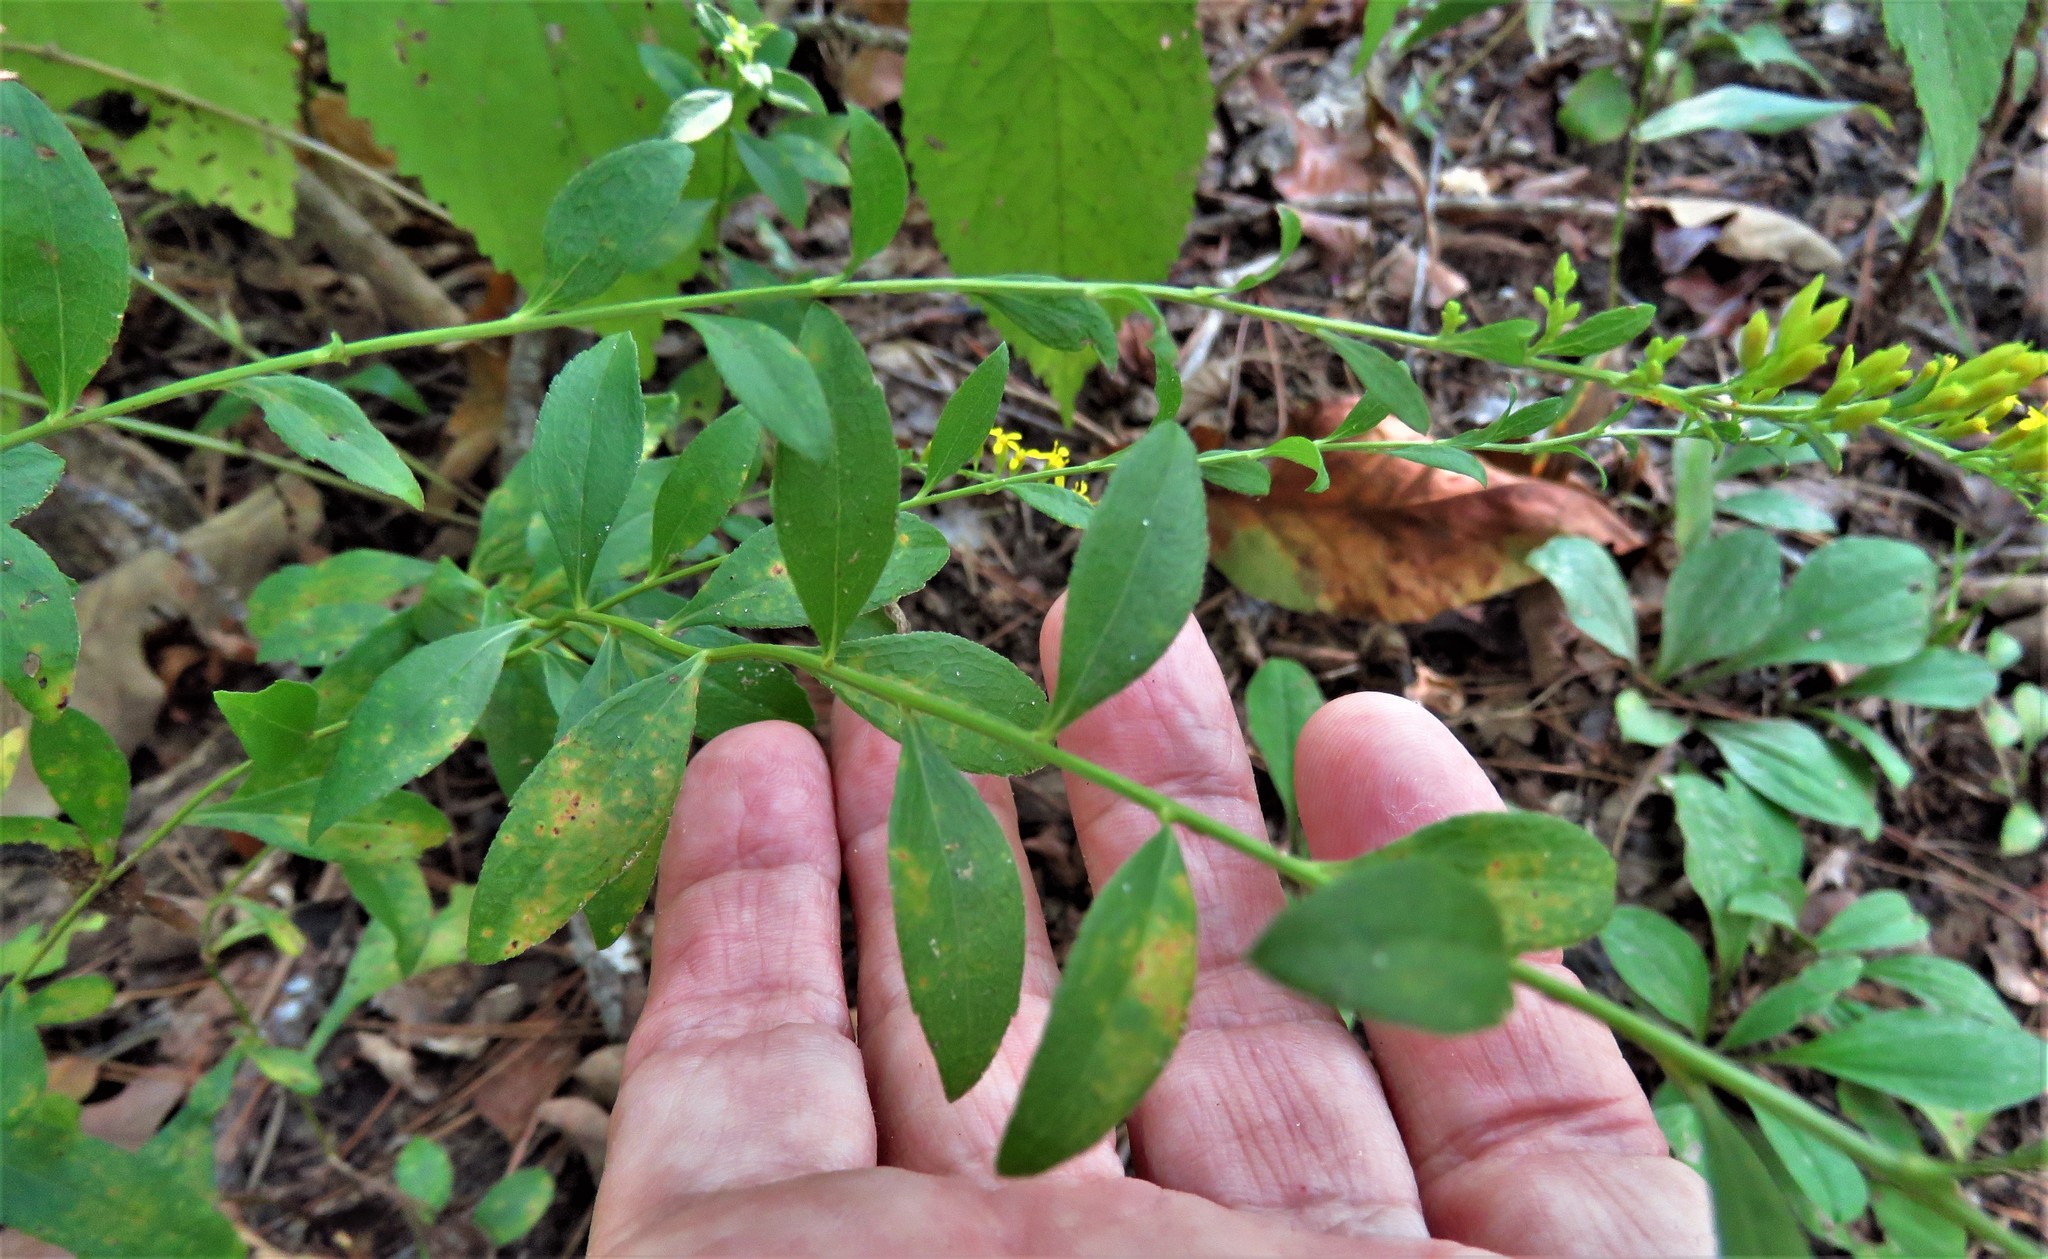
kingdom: Plantae
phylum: Tracheophyta
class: Magnoliopsida
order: Asterales
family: Asteraceae
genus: Solidago
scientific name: Solidago ulmifolia
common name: Elm-leaf goldenrod
